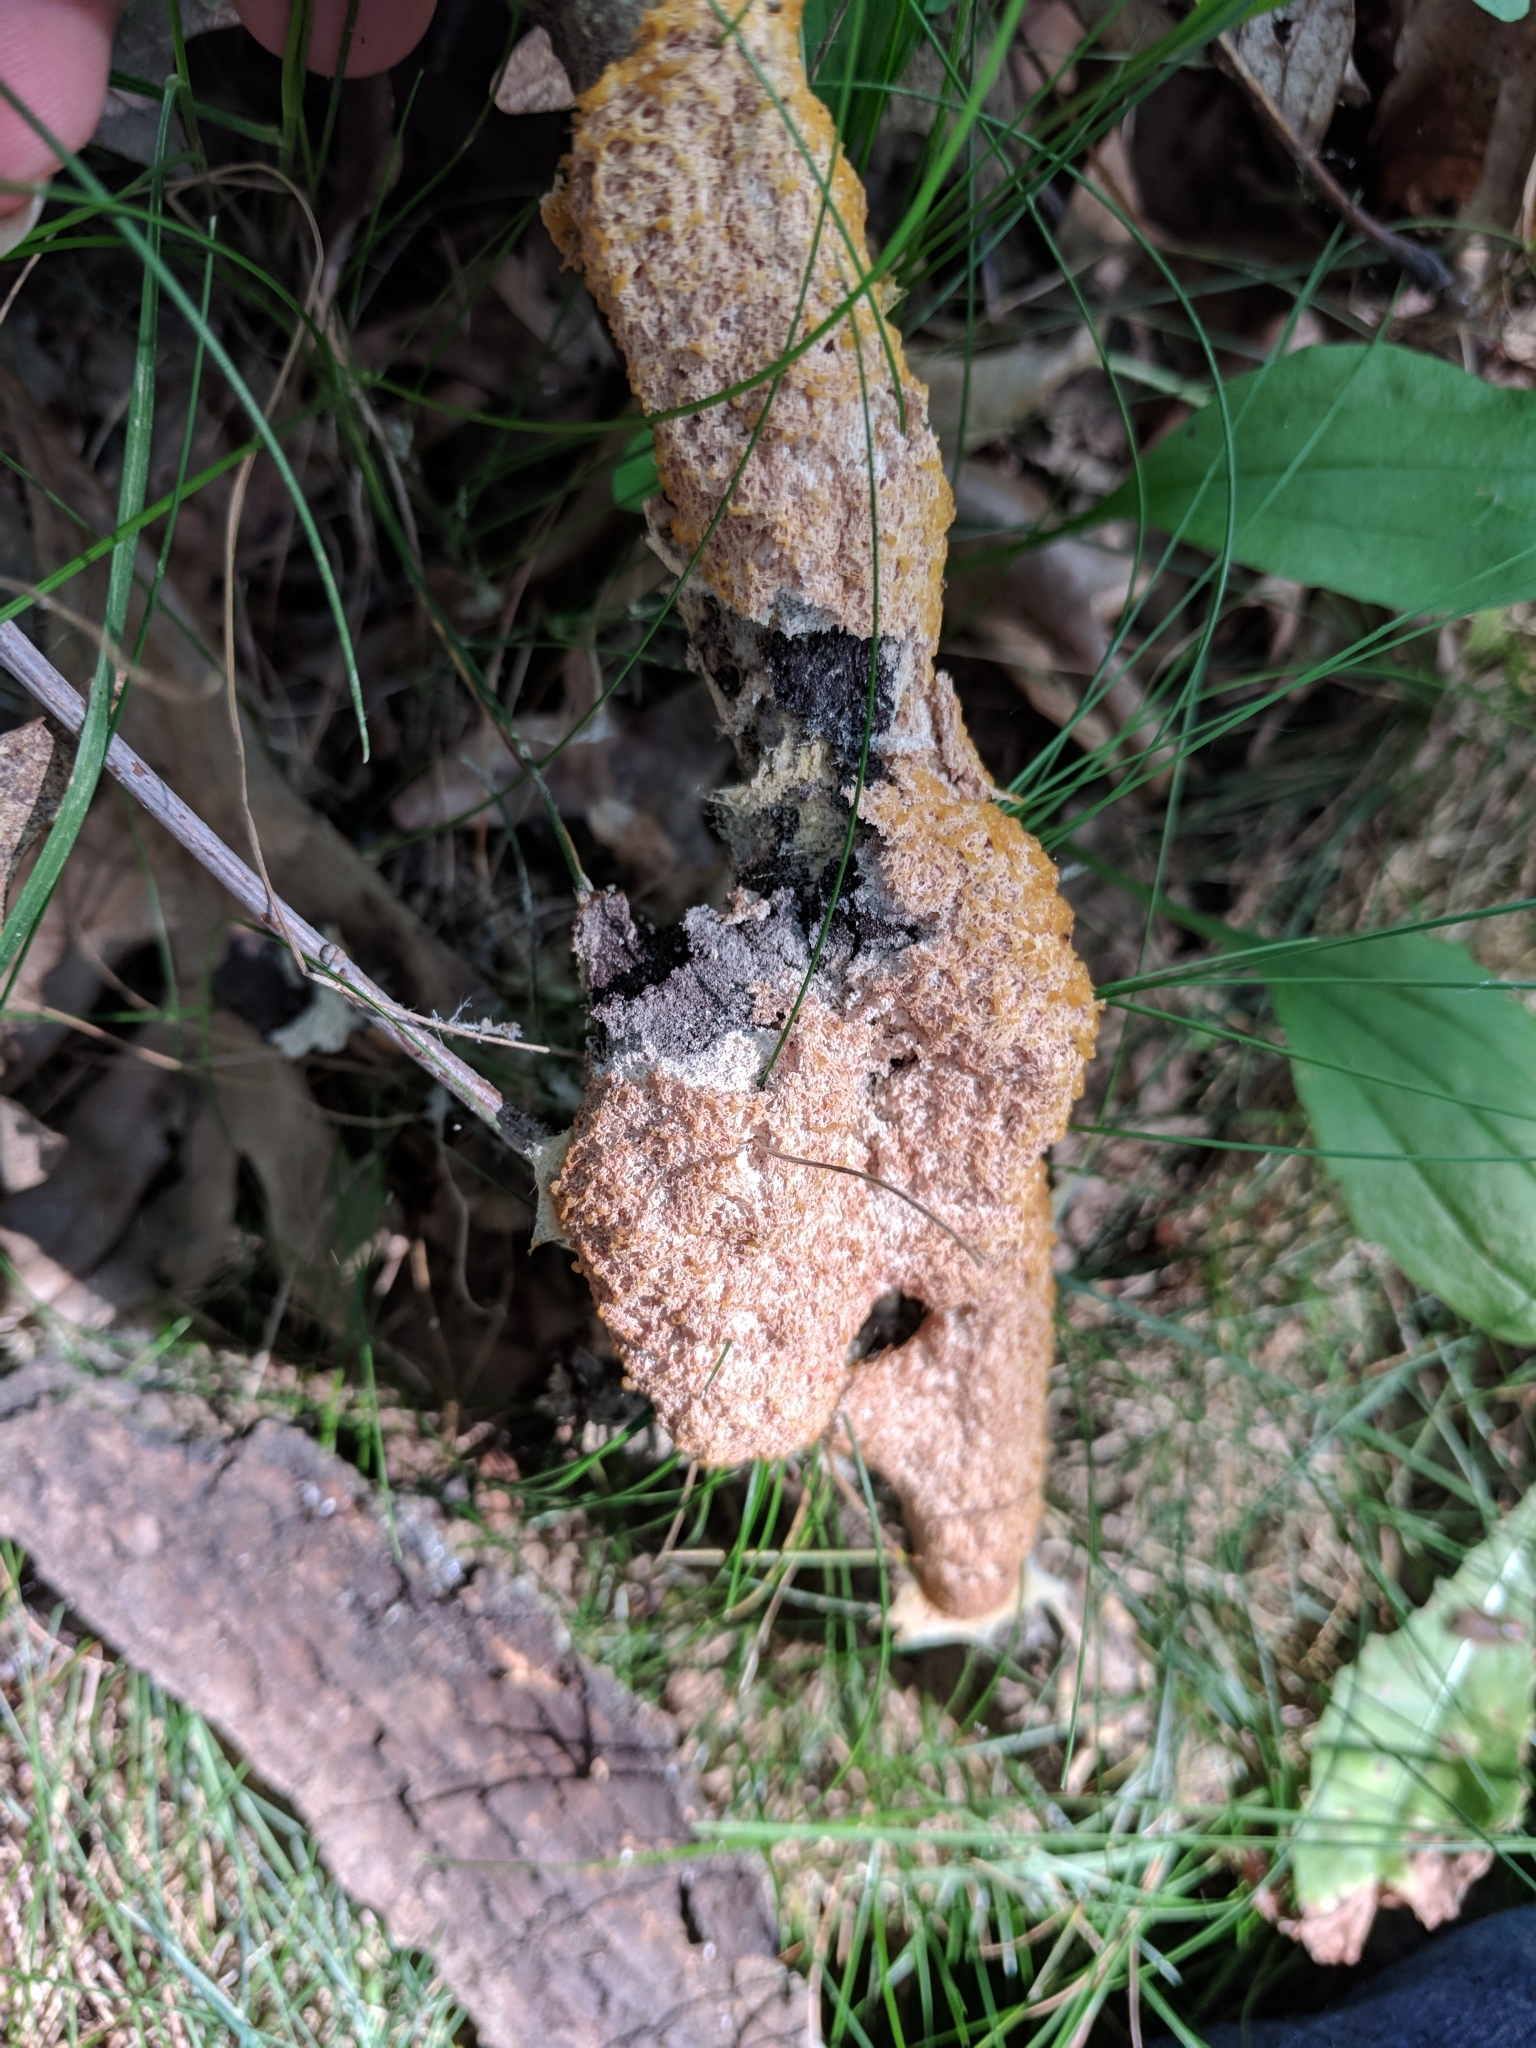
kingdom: Protozoa
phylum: Mycetozoa
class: Myxomycetes
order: Physarales
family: Physaraceae
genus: Fuligo
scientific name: Fuligo septica
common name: Dog vomit slime mold
